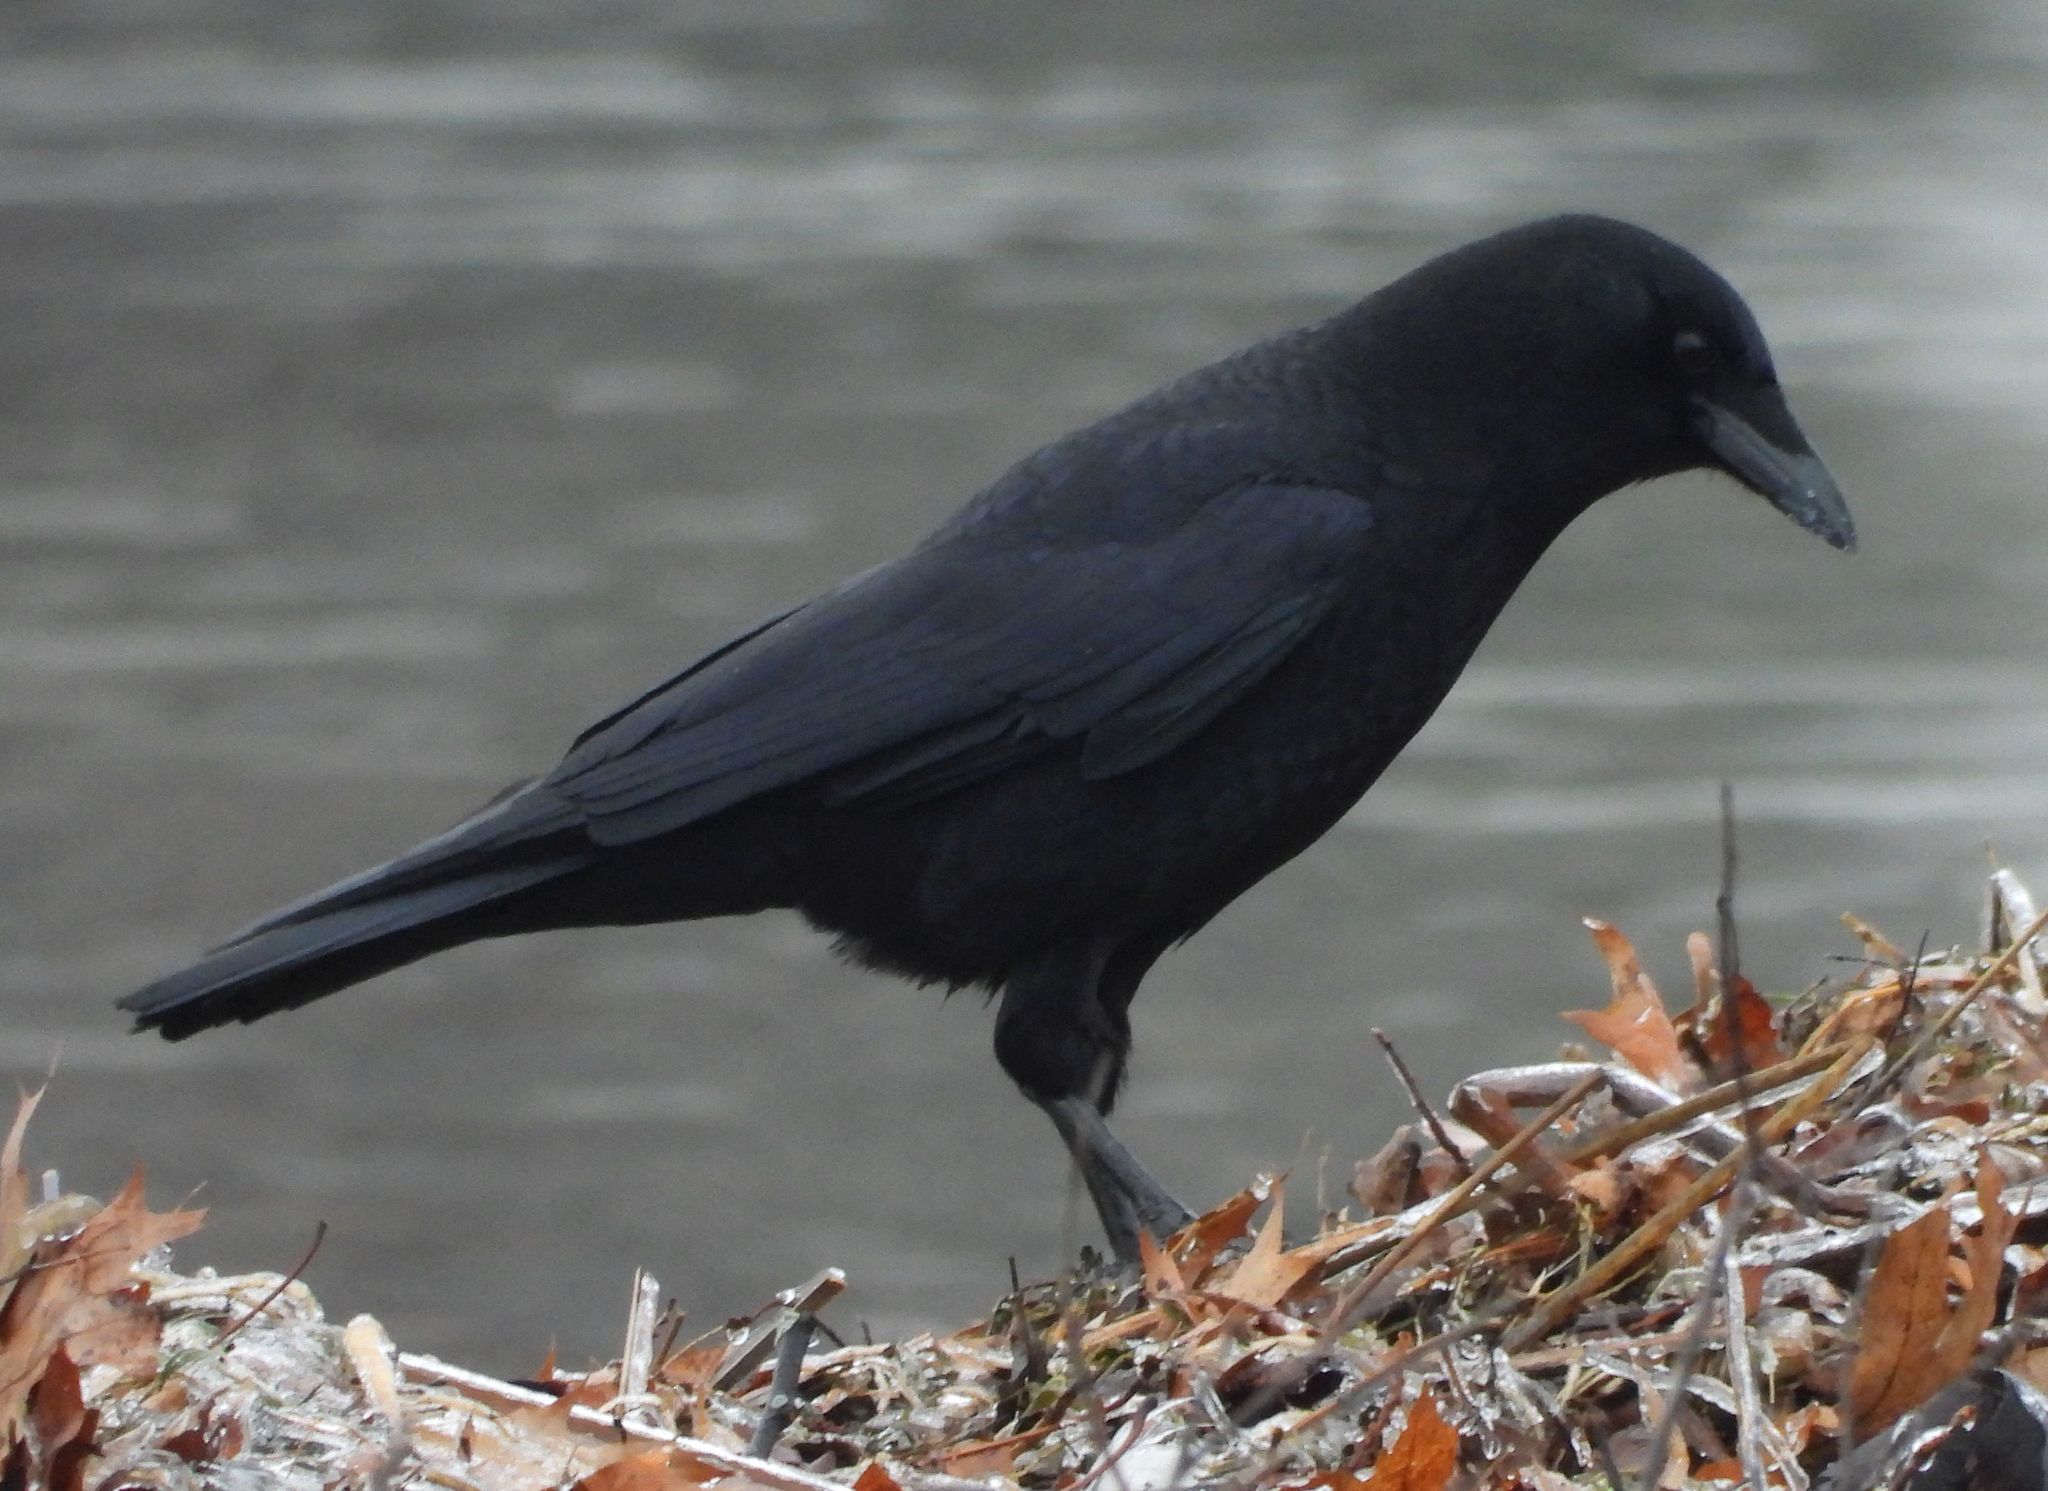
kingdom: Animalia
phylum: Chordata
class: Aves
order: Passeriformes
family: Corvidae
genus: Corvus
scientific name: Corvus brachyrhynchos
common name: American crow
